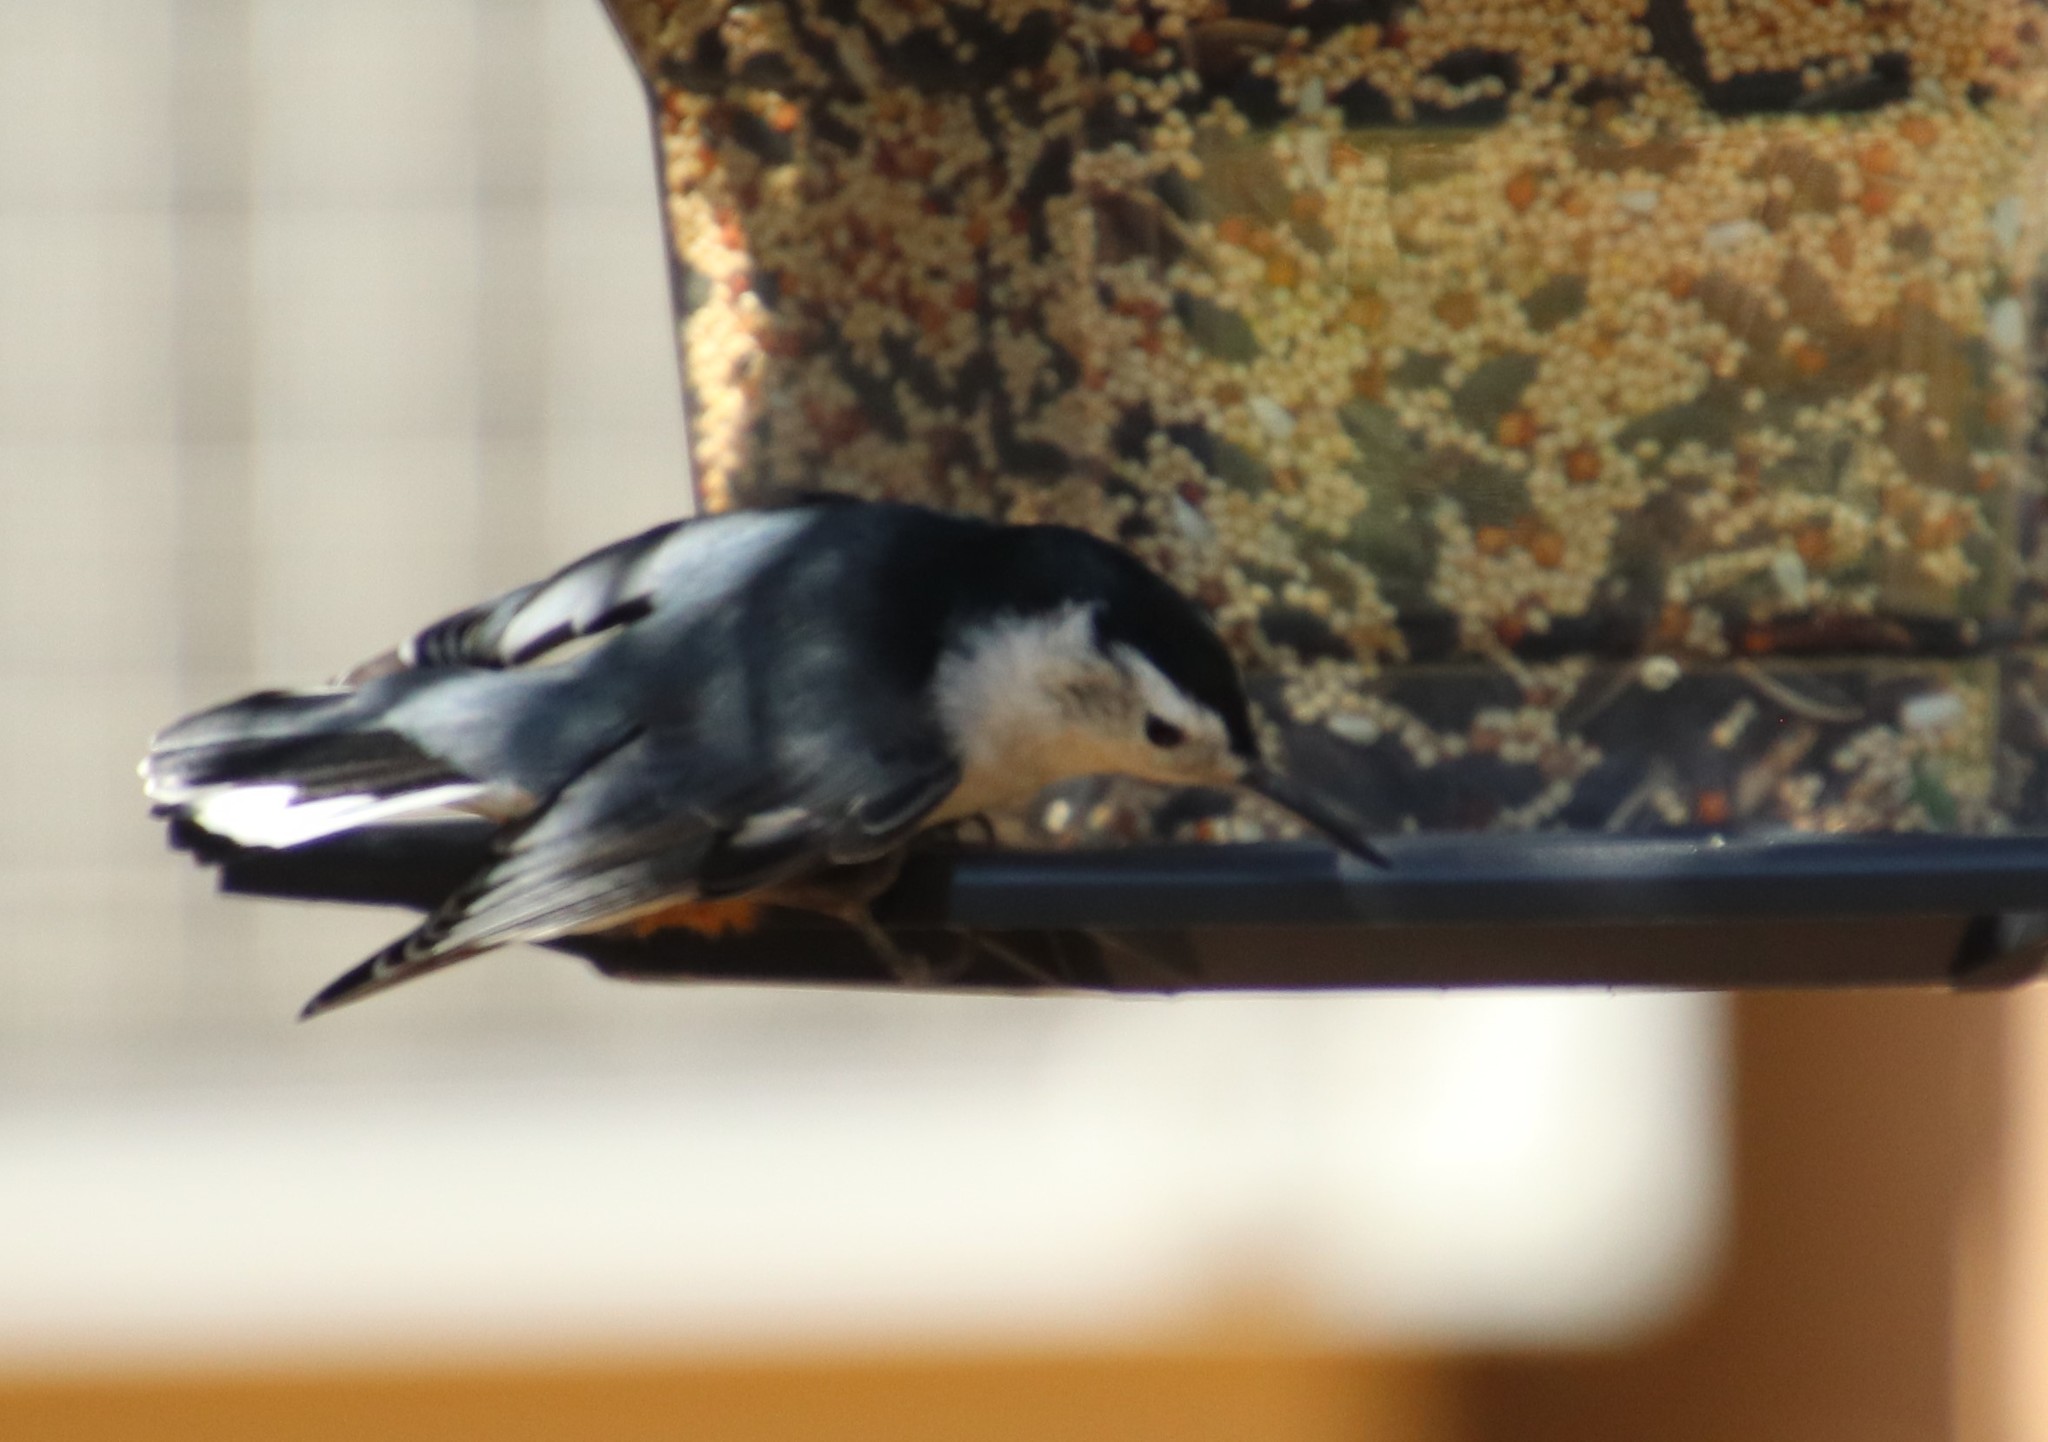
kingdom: Animalia
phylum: Chordata
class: Aves
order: Passeriformes
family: Sittidae
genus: Sitta
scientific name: Sitta carolinensis
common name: White-breasted nuthatch
